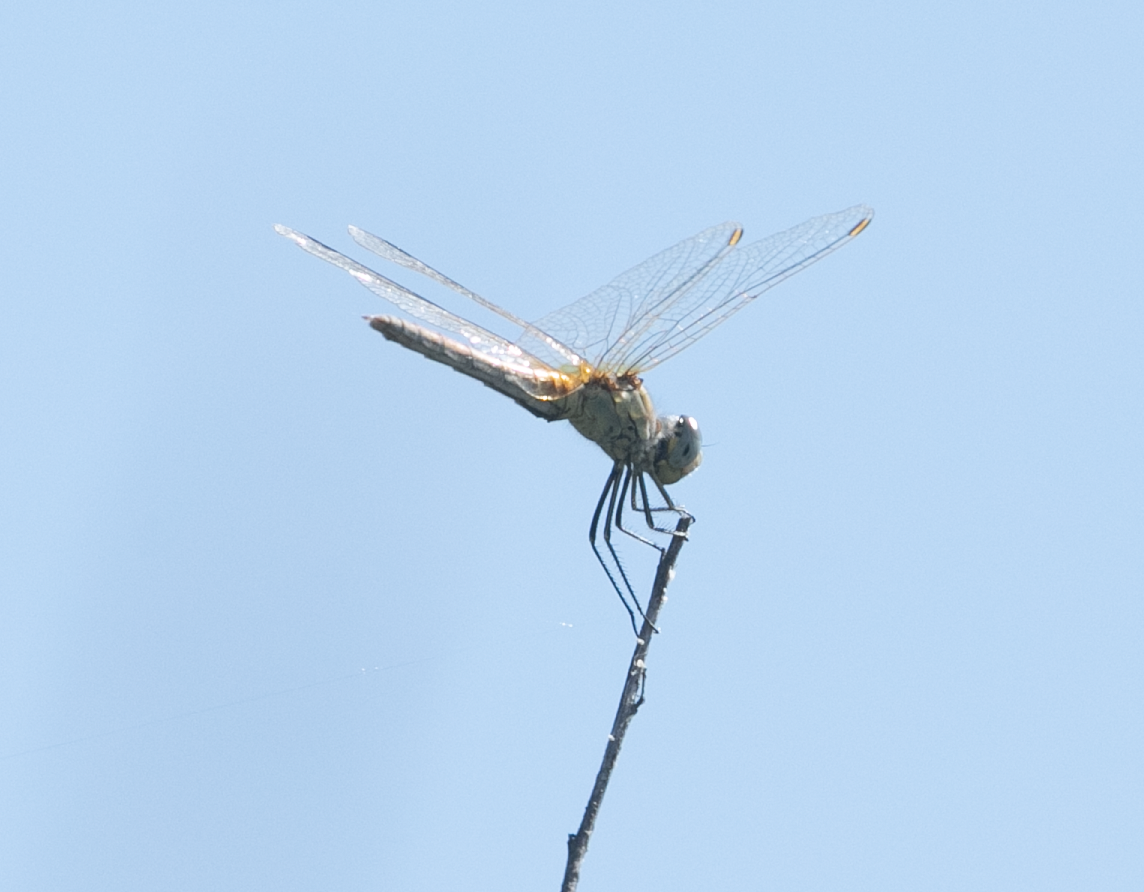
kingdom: Animalia
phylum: Arthropoda
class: Insecta
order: Odonata
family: Libellulidae
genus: Sympetrum
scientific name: Sympetrum fonscolombii
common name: Red-veined darter
